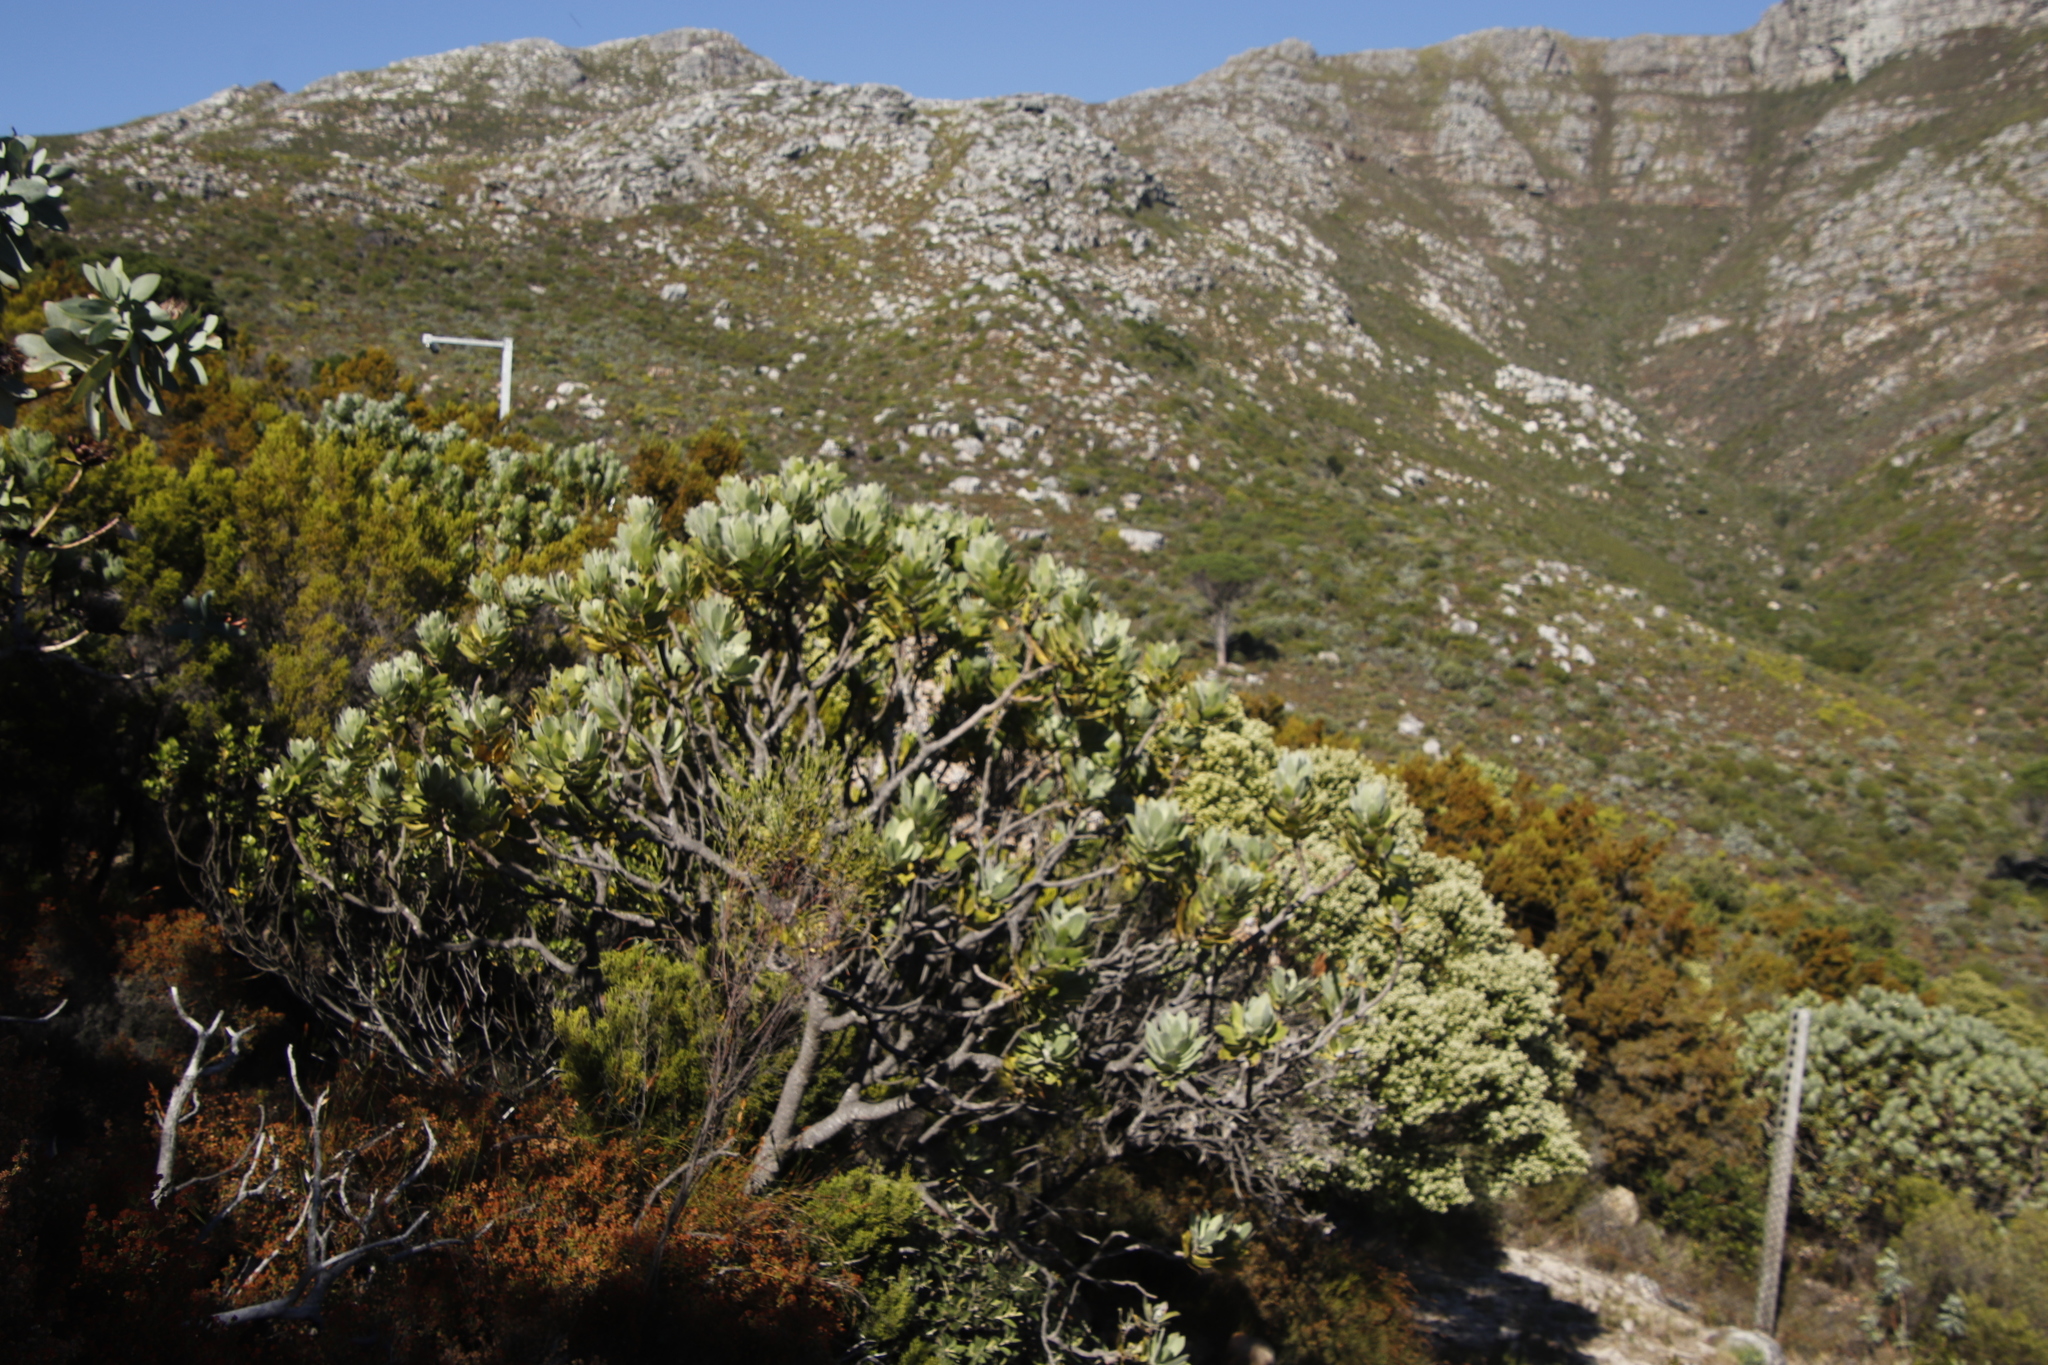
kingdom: Plantae
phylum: Tracheophyta
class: Magnoliopsida
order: Proteales
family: Proteaceae
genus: Leucospermum
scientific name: Leucospermum conocarpodendron
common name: Tree pincushion
